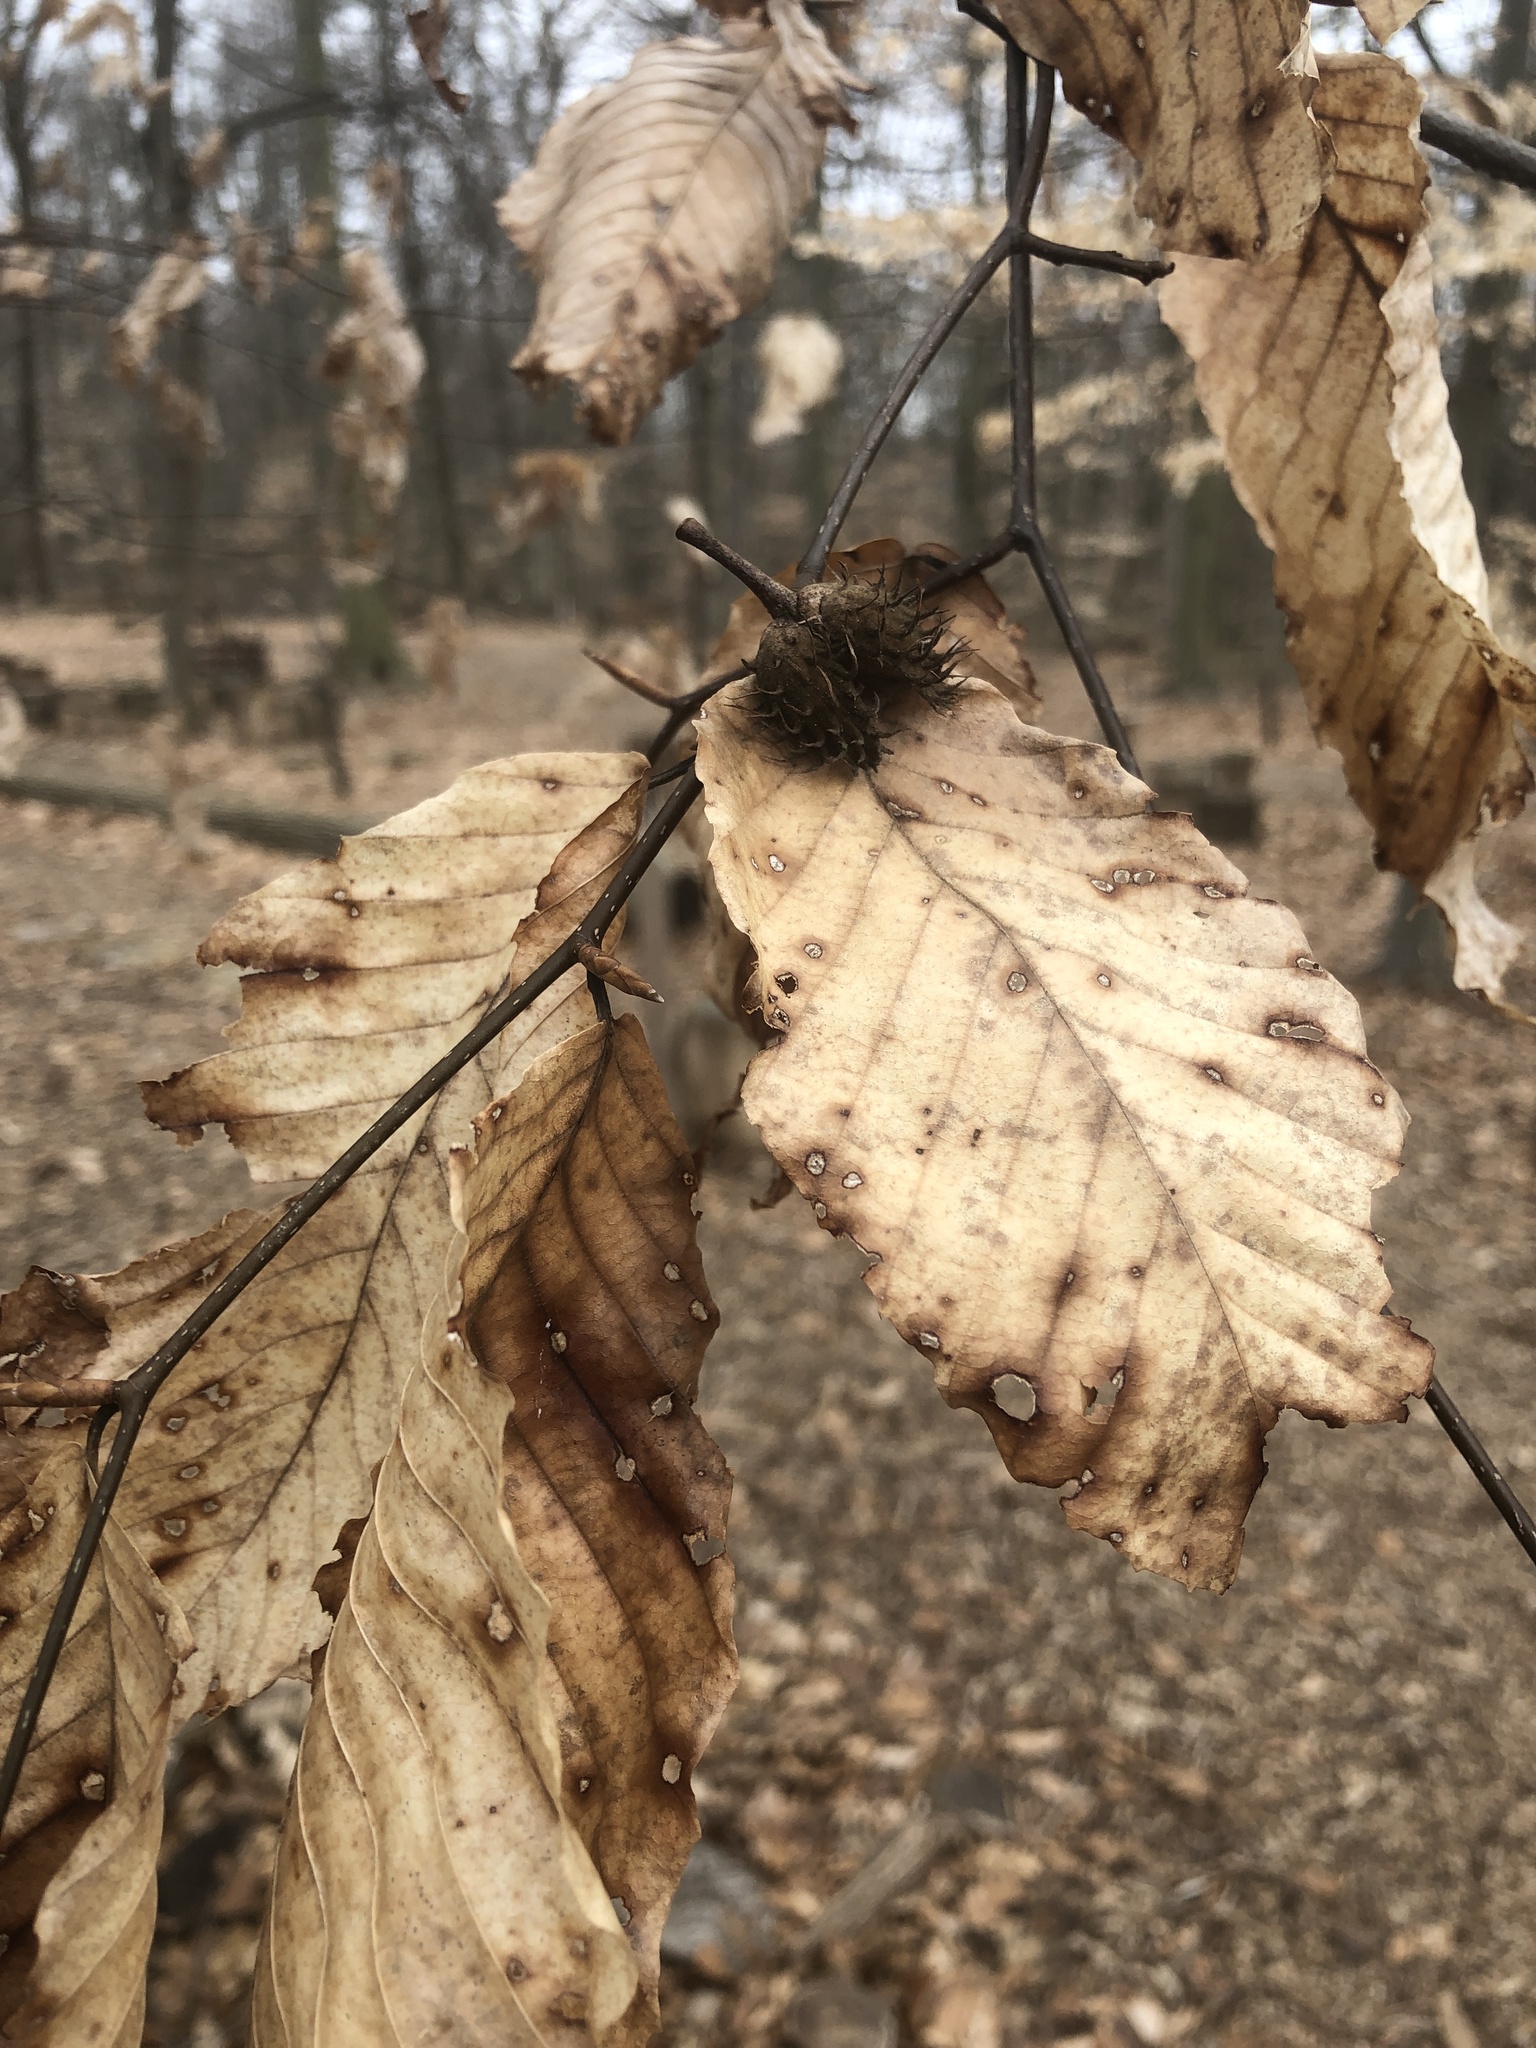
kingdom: Plantae
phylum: Tracheophyta
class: Magnoliopsida
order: Fagales
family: Fagaceae
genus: Fagus
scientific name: Fagus grandifolia
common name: American beech
